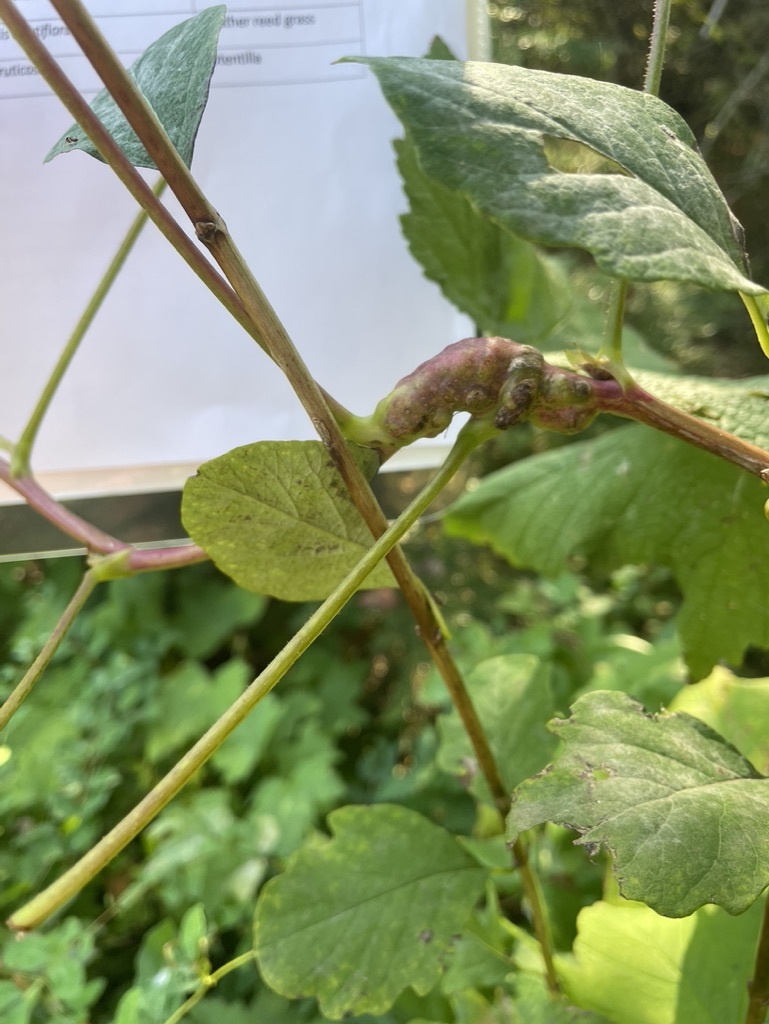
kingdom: Animalia
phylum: Arthropoda
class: Insecta
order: Hymenoptera
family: Cynipidae
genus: Diastrophus
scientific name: Diastrophus
